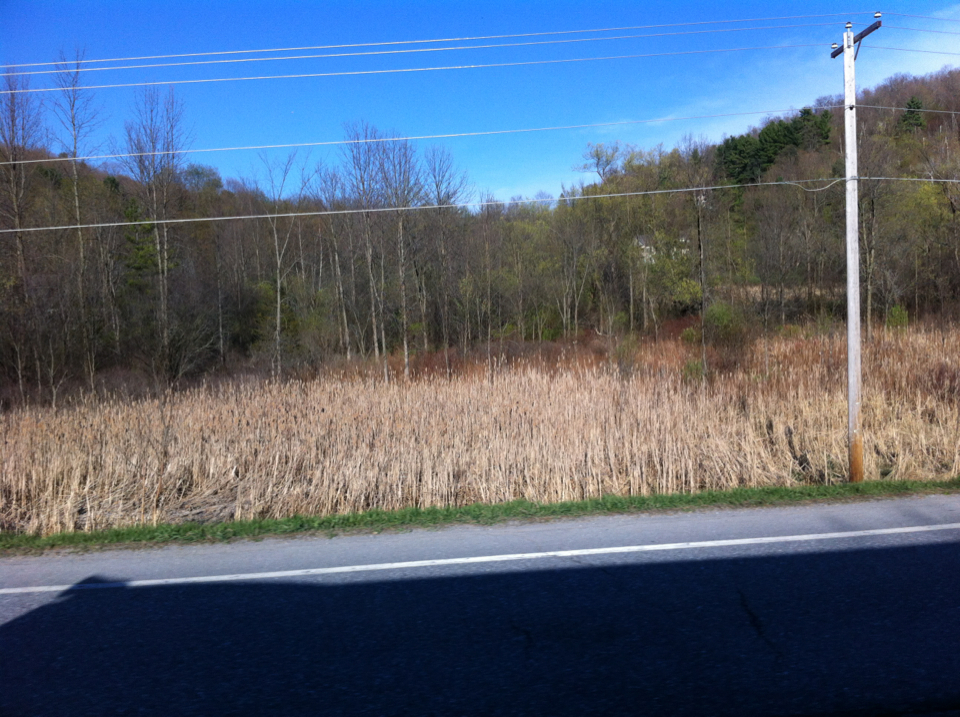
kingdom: Plantae
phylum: Tracheophyta
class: Liliopsida
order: Poales
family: Typhaceae
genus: Typha
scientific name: Typha
